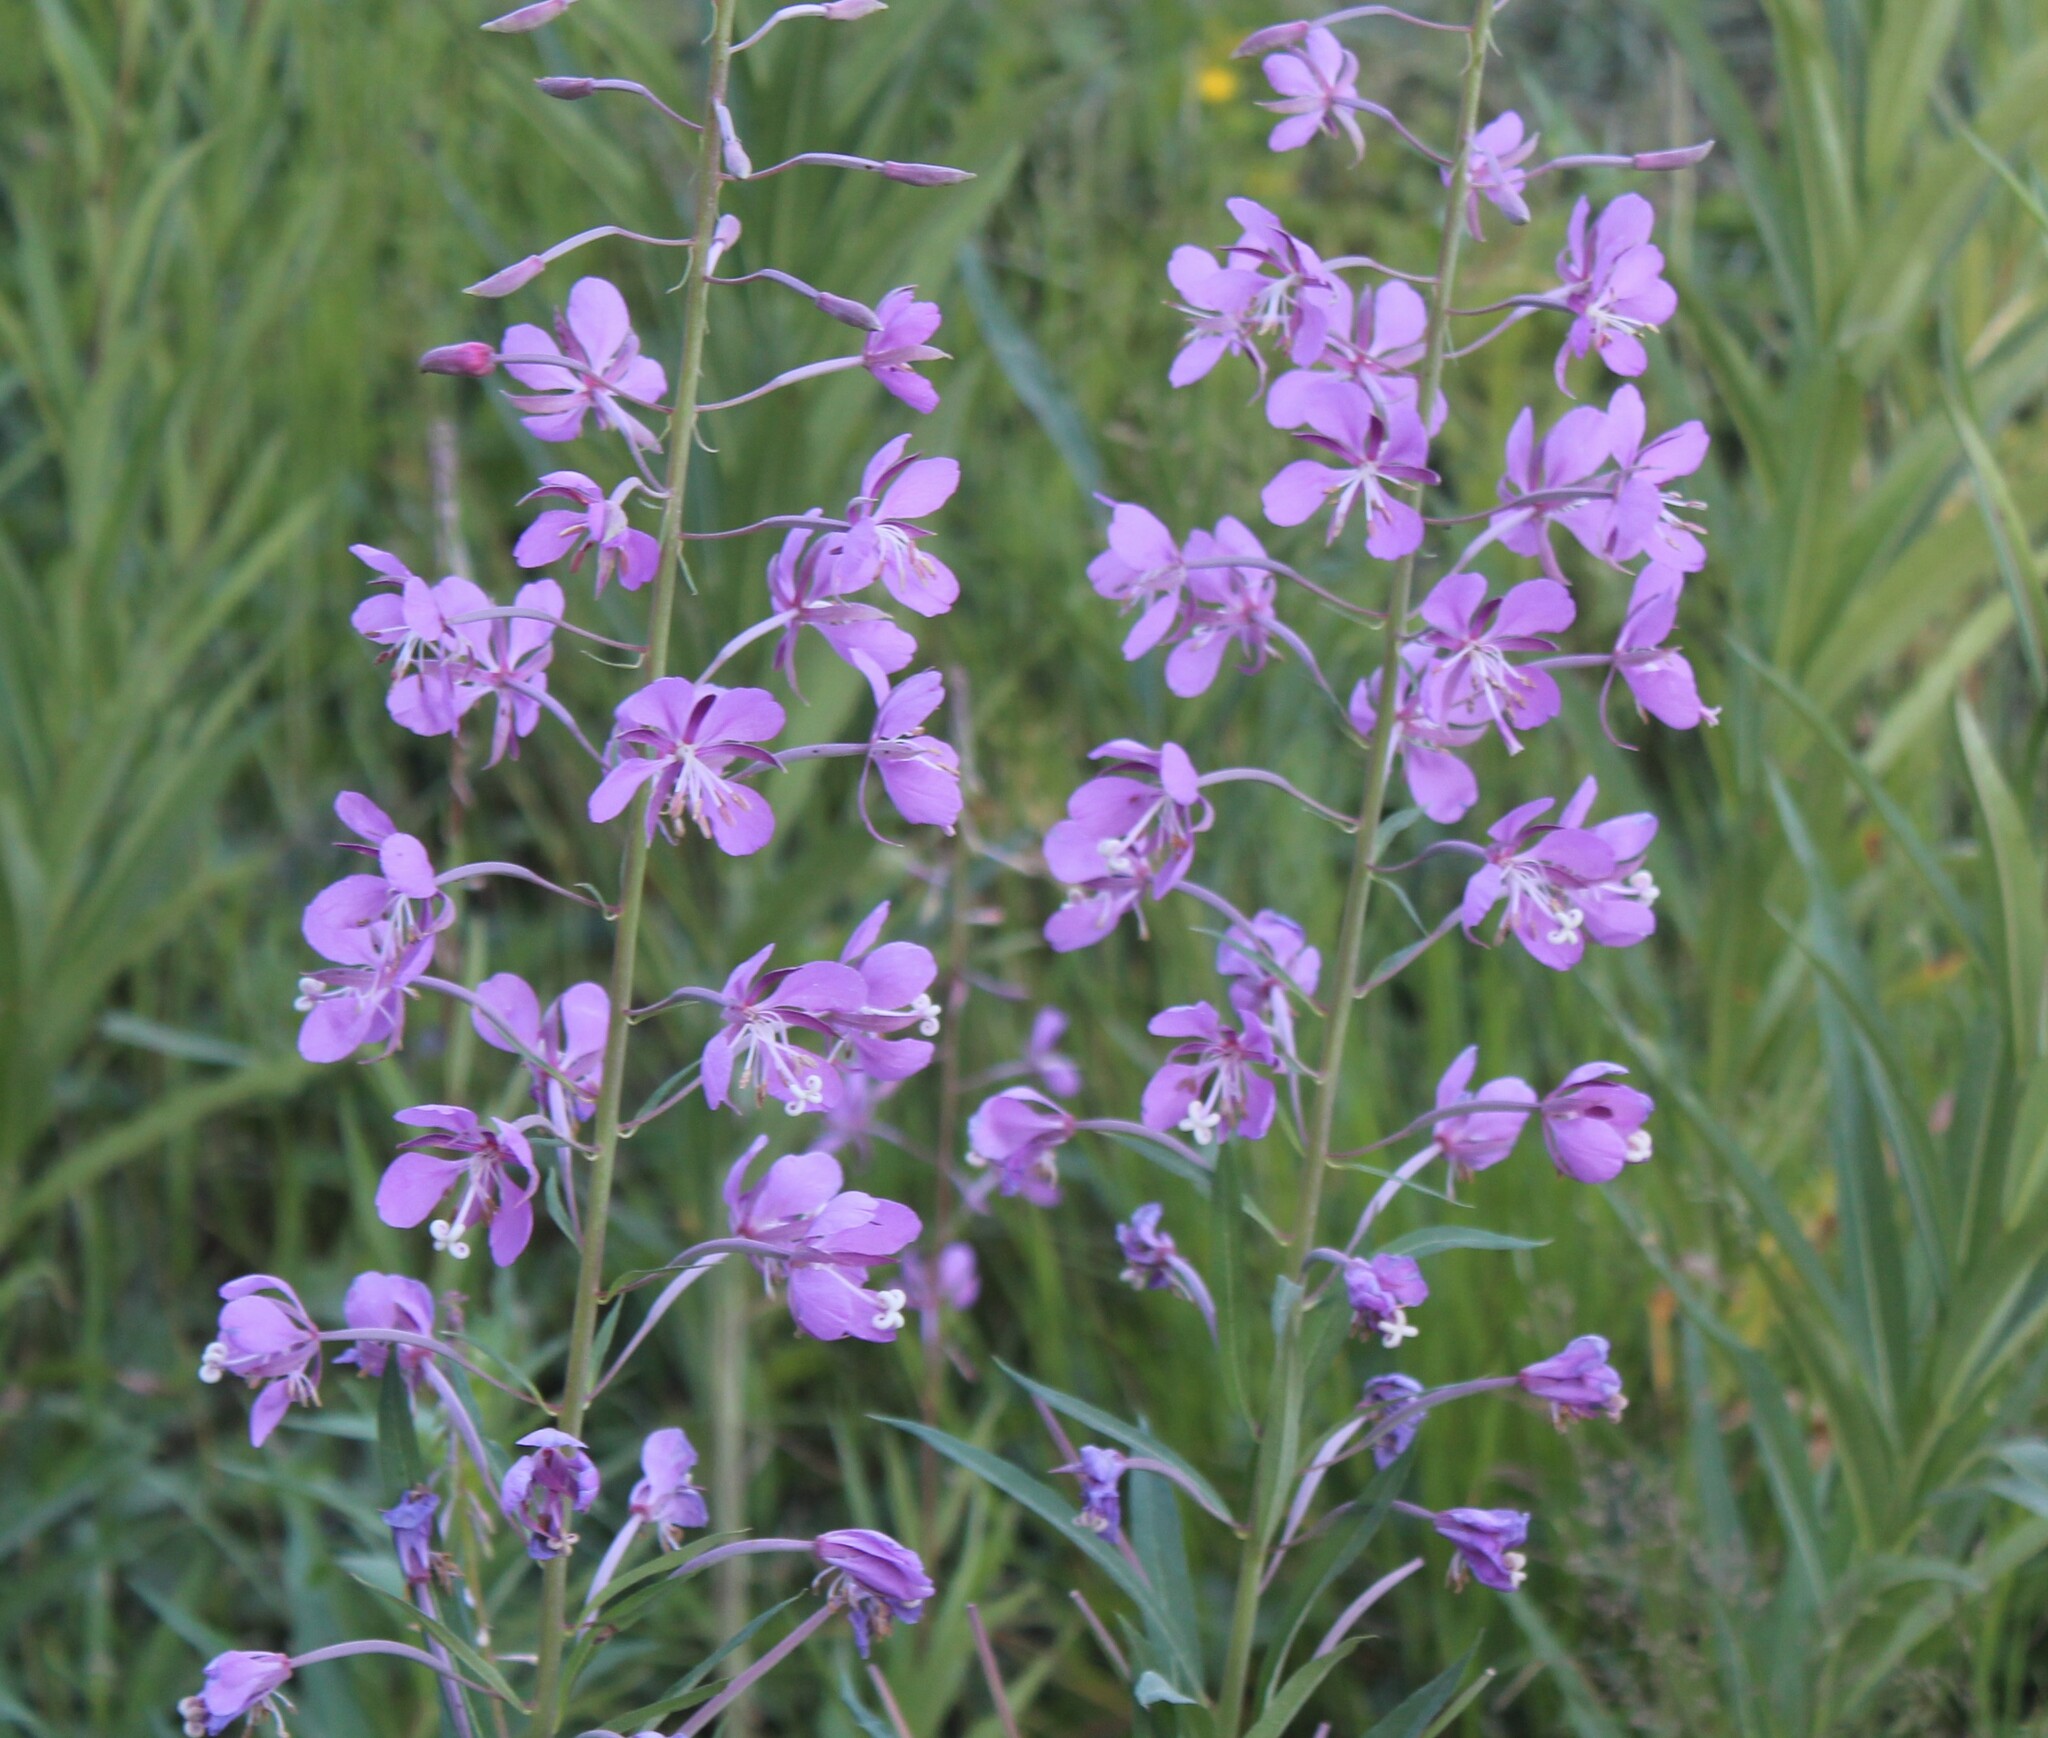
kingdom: Plantae
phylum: Tracheophyta
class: Magnoliopsida
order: Myrtales
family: Onagraceae
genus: Chamaenerion
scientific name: Chamaenerion angustifolium
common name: Fireweed
